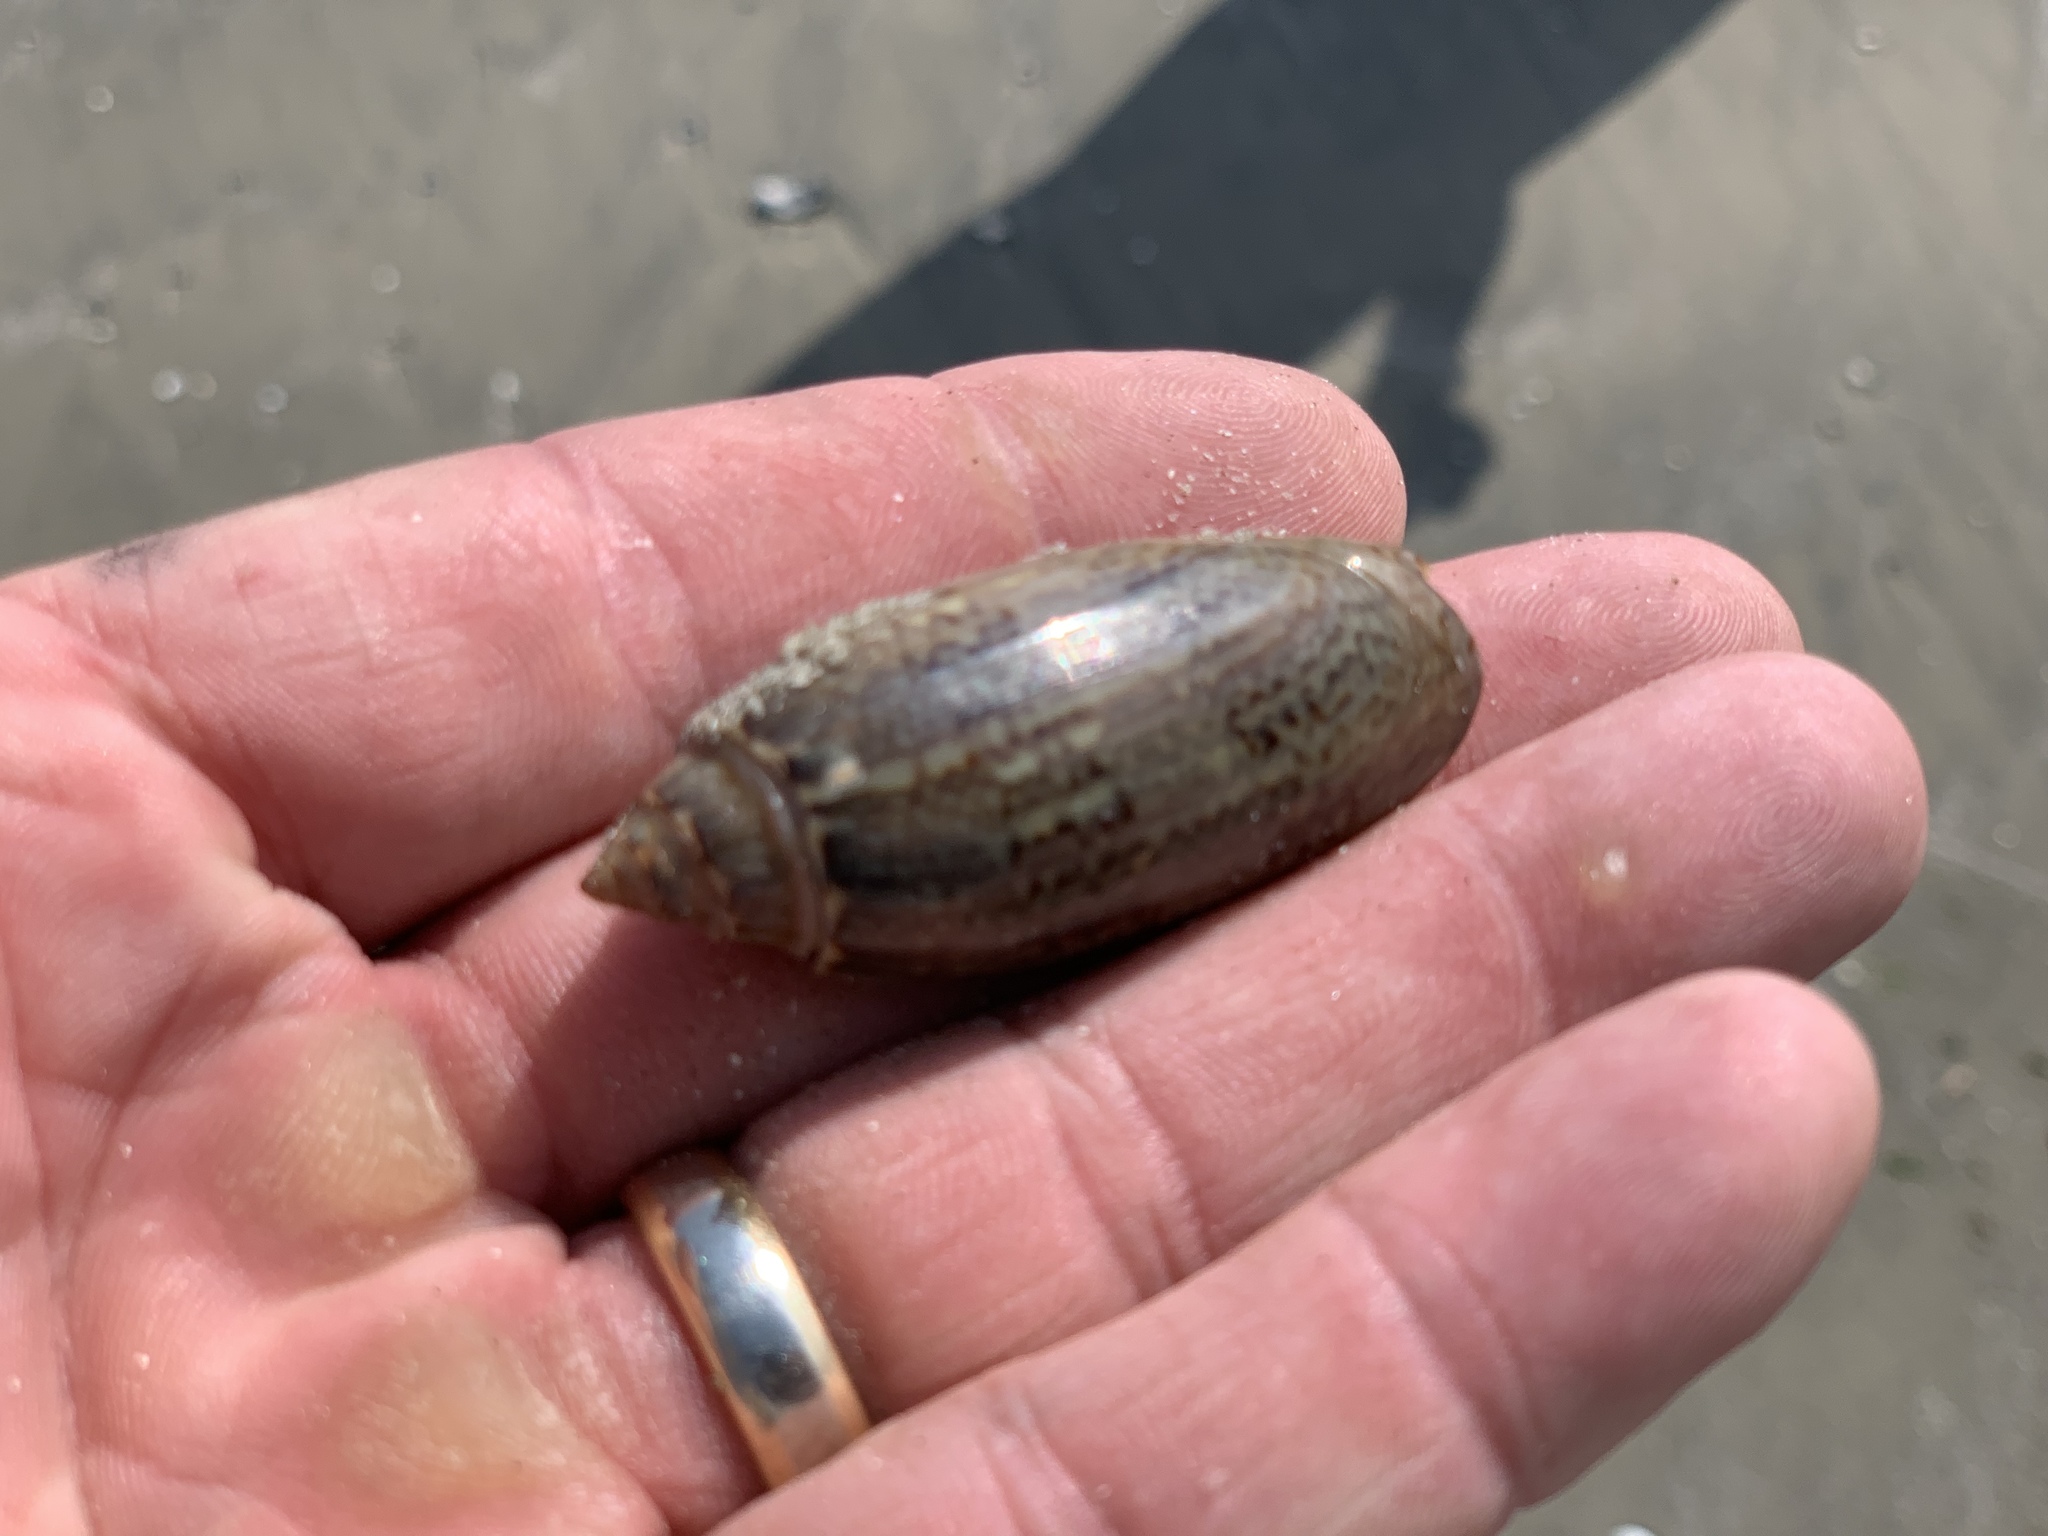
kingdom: Animalia
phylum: Mollusca
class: Gastropoda
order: Neogastropoda
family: Olividae
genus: Oliva
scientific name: Oliva sayana
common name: Lettered olive
